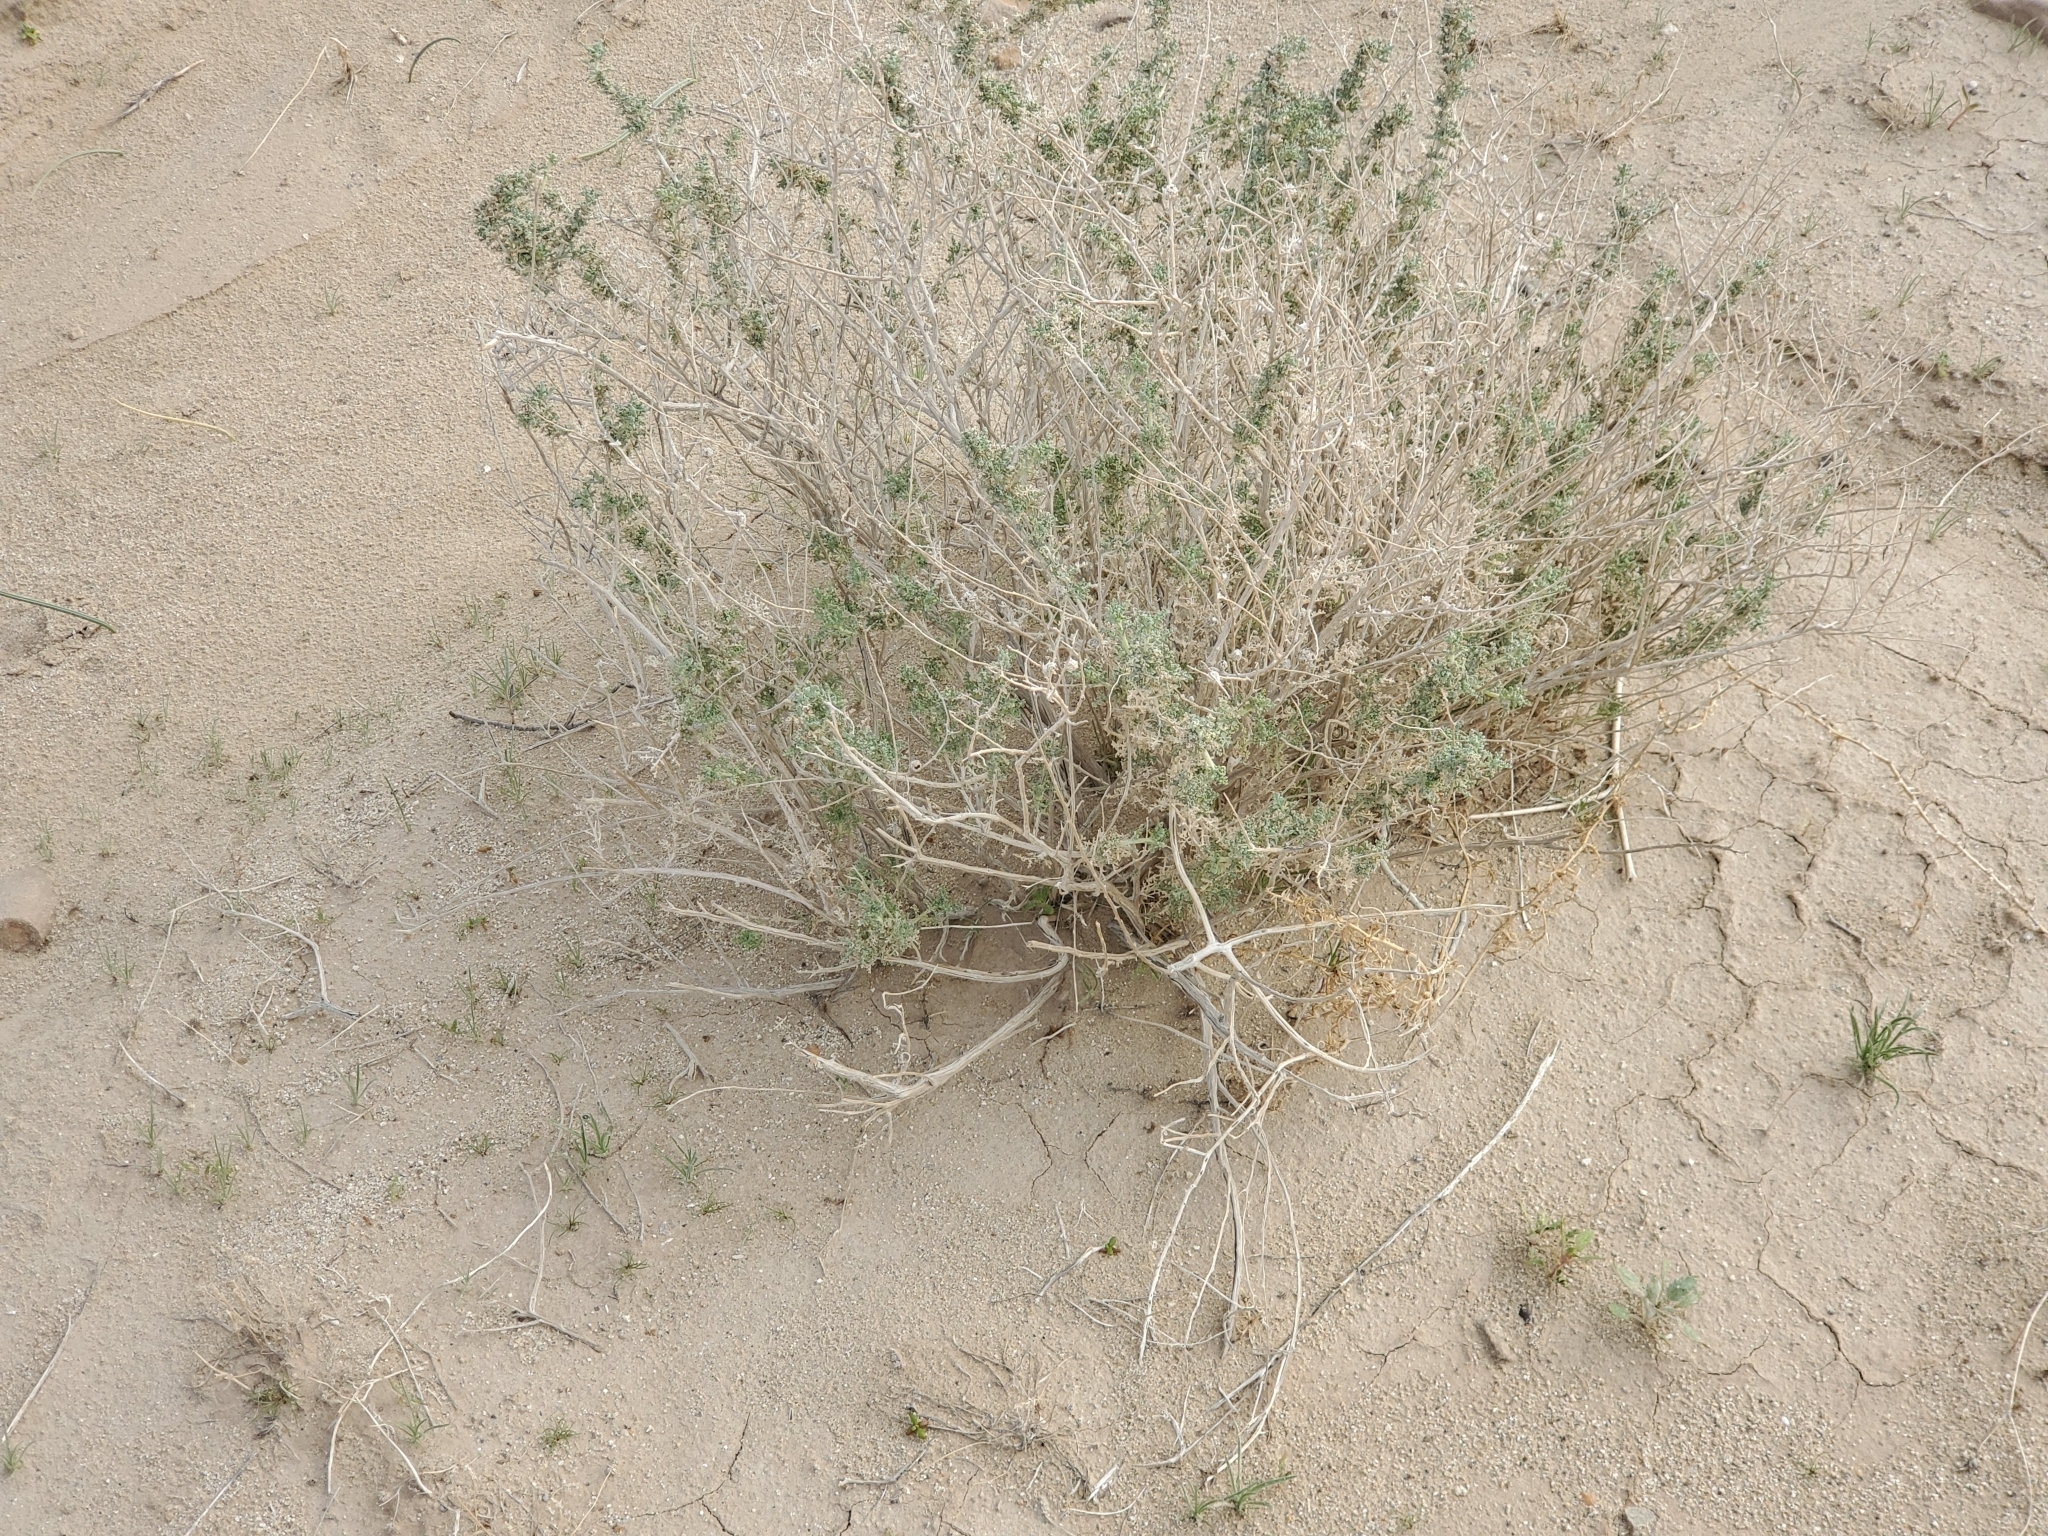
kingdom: Plantae
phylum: Tracheophyta
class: Magnoliopsida
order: Asterales
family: Asteraceae
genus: Ambrosia
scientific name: Ambrosia dumosa
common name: Bur-sage
